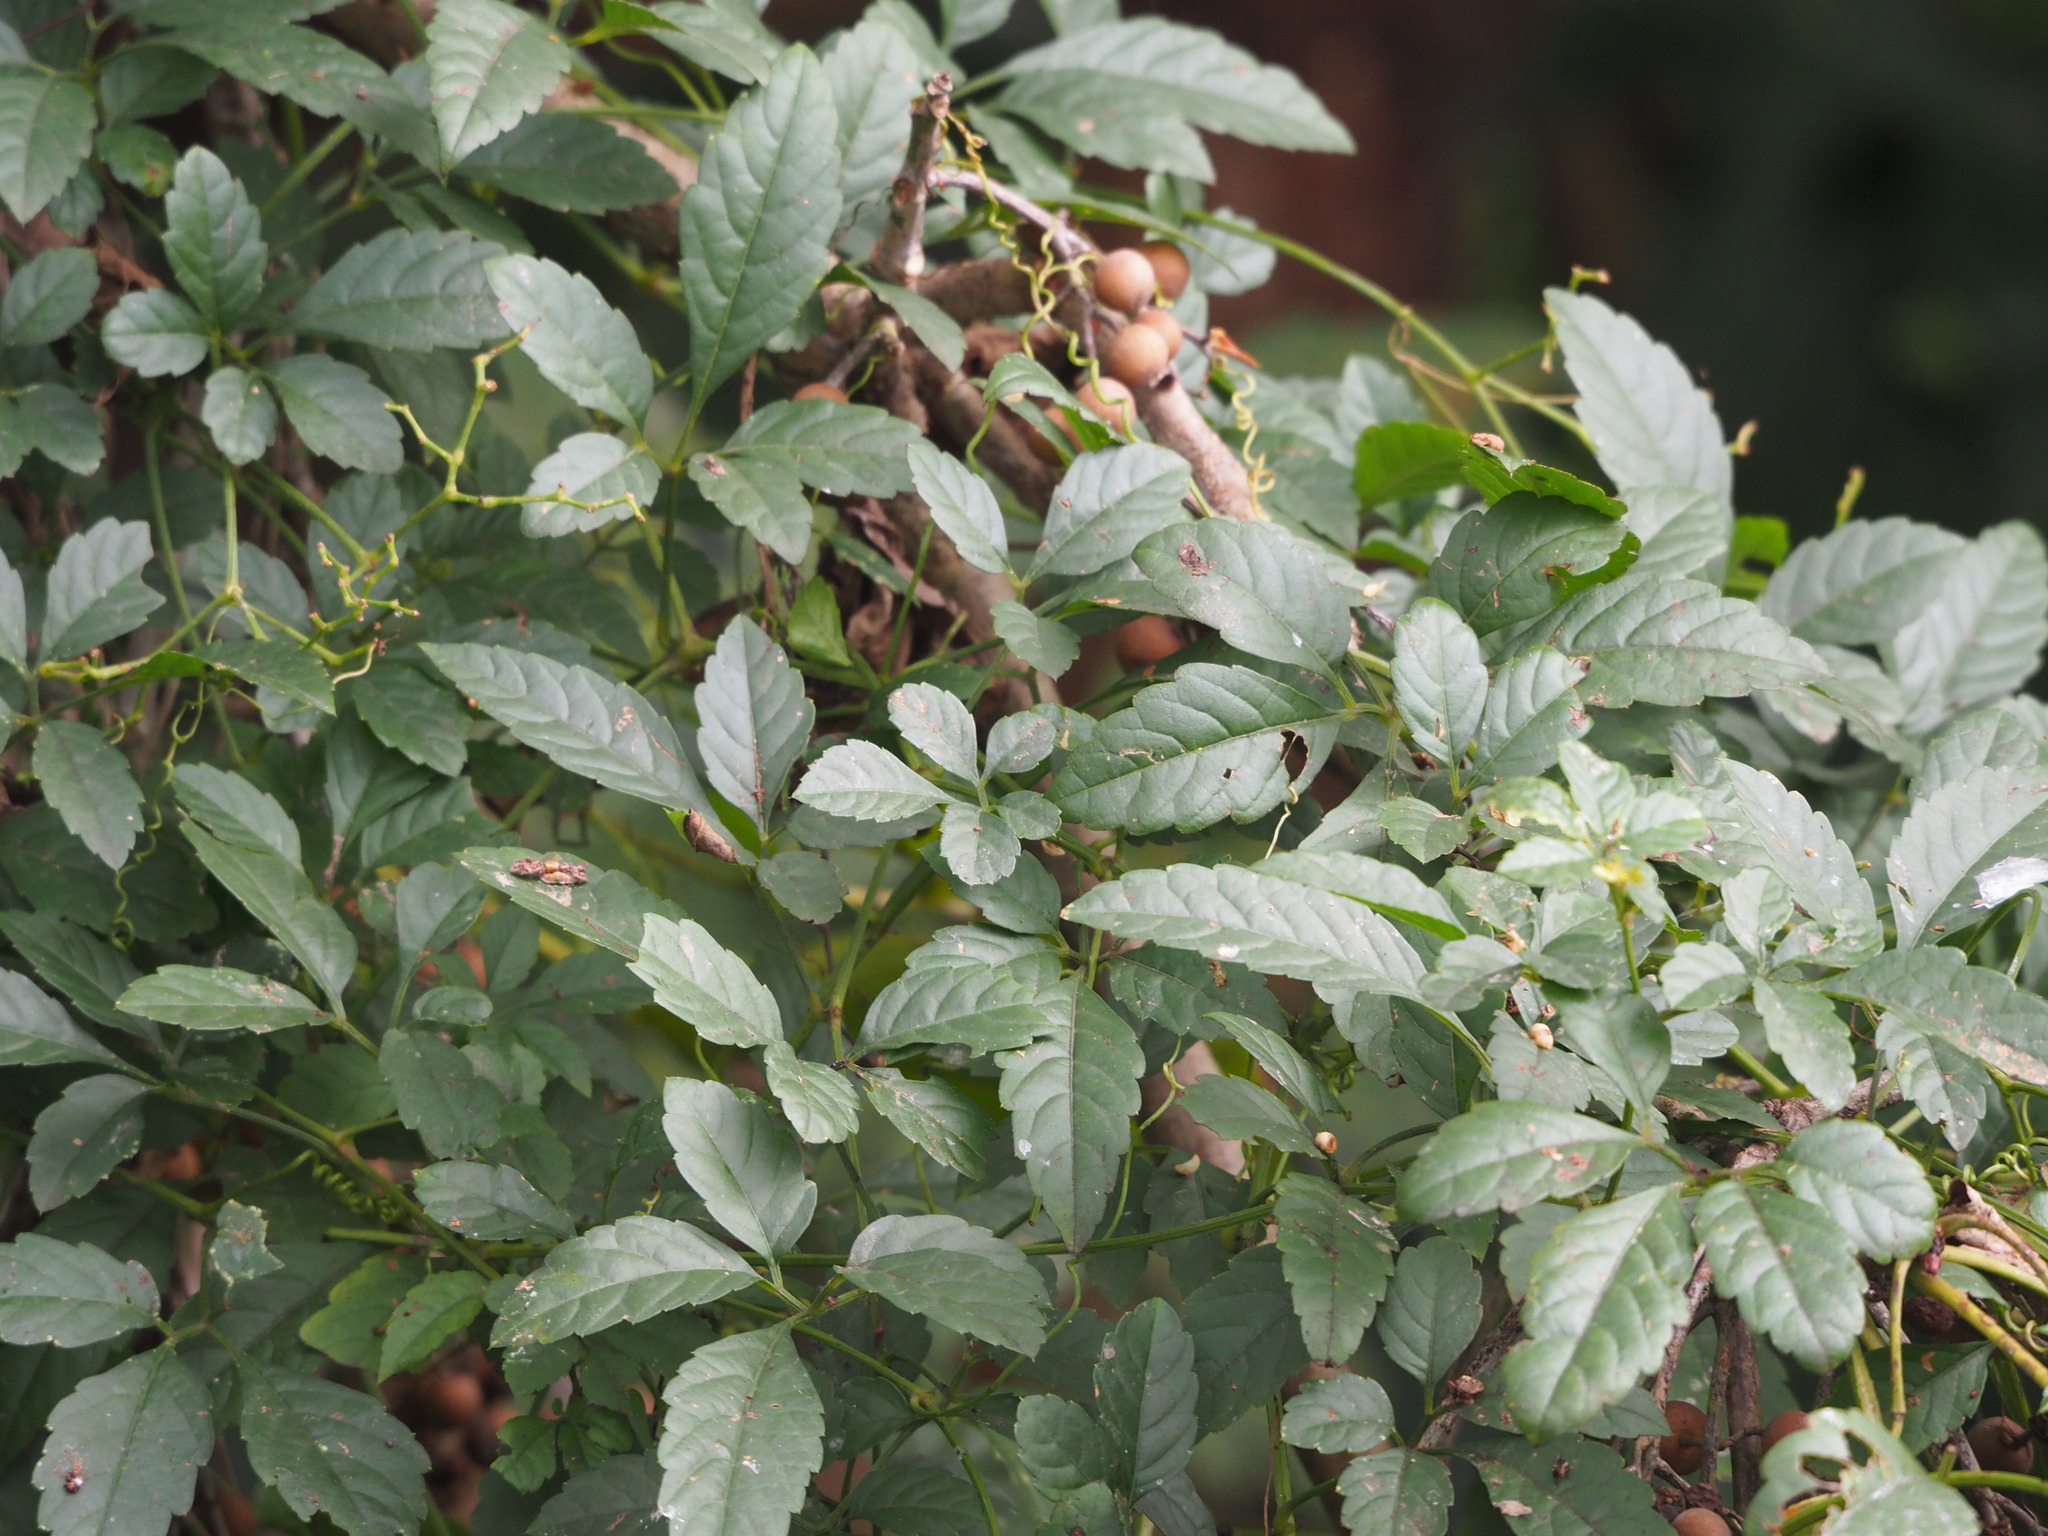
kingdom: Plantae
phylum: Tracheophyta
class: Magnoliopsida
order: Vitales
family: Vitaceae
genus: Causonis
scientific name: Causonis japonica
